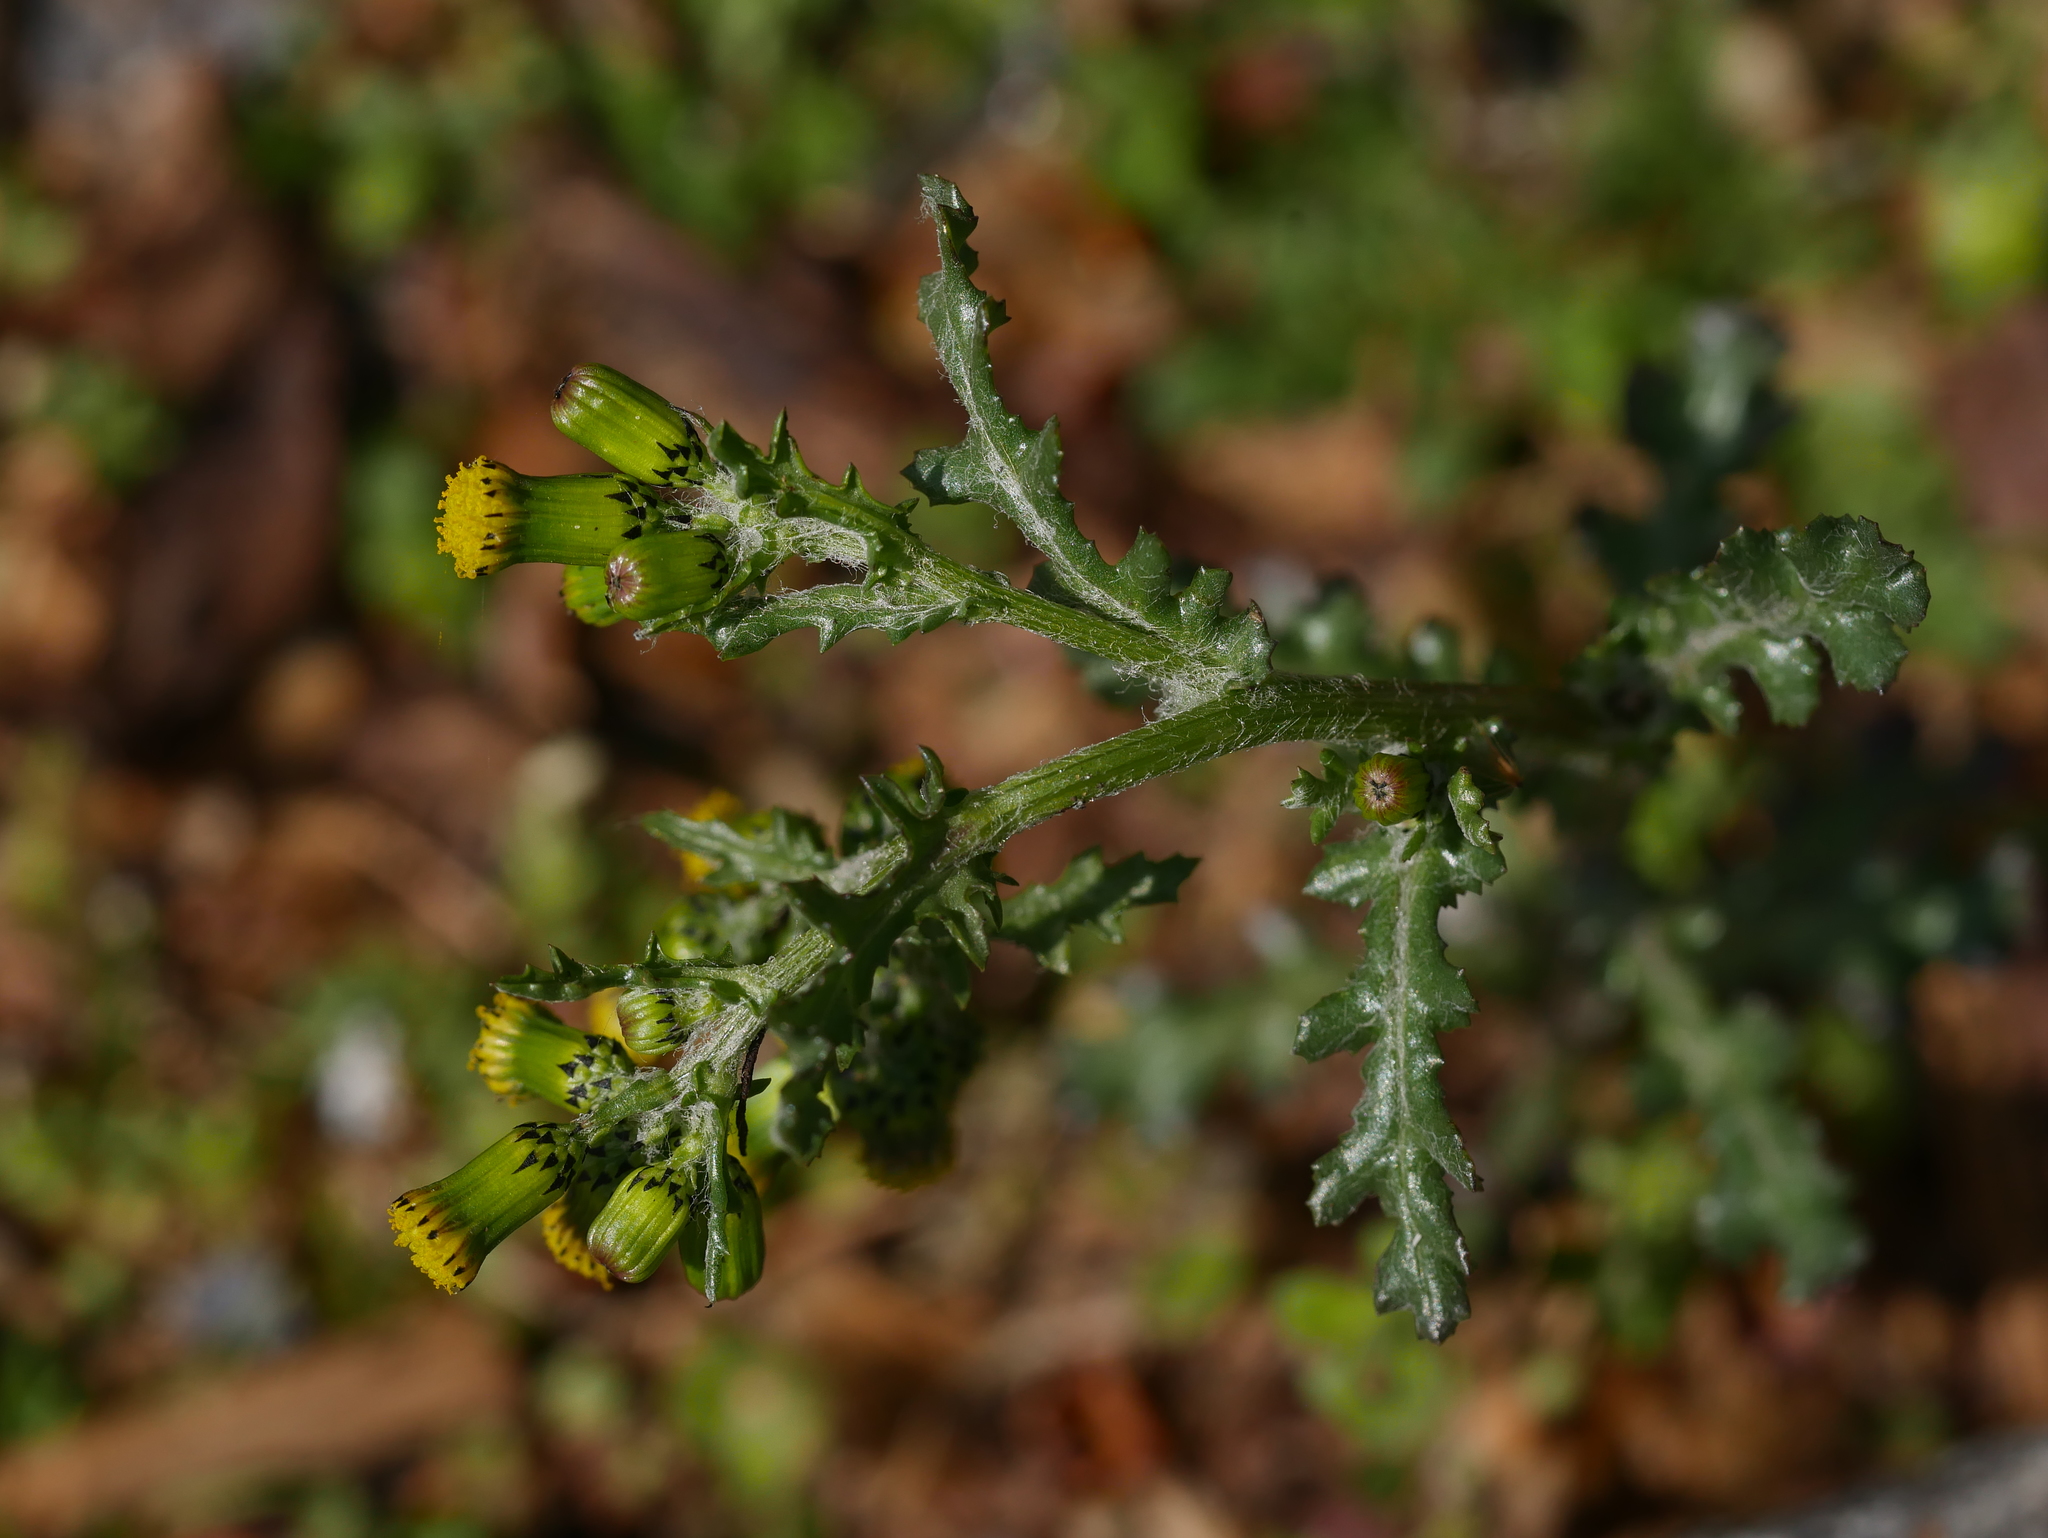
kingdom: Plantae
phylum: Tracheophyta
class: Magnoliopsida
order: Asterales
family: Asteraceae
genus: Senecio
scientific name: Senecio vulgaris
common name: Old-man-in-the-spring
